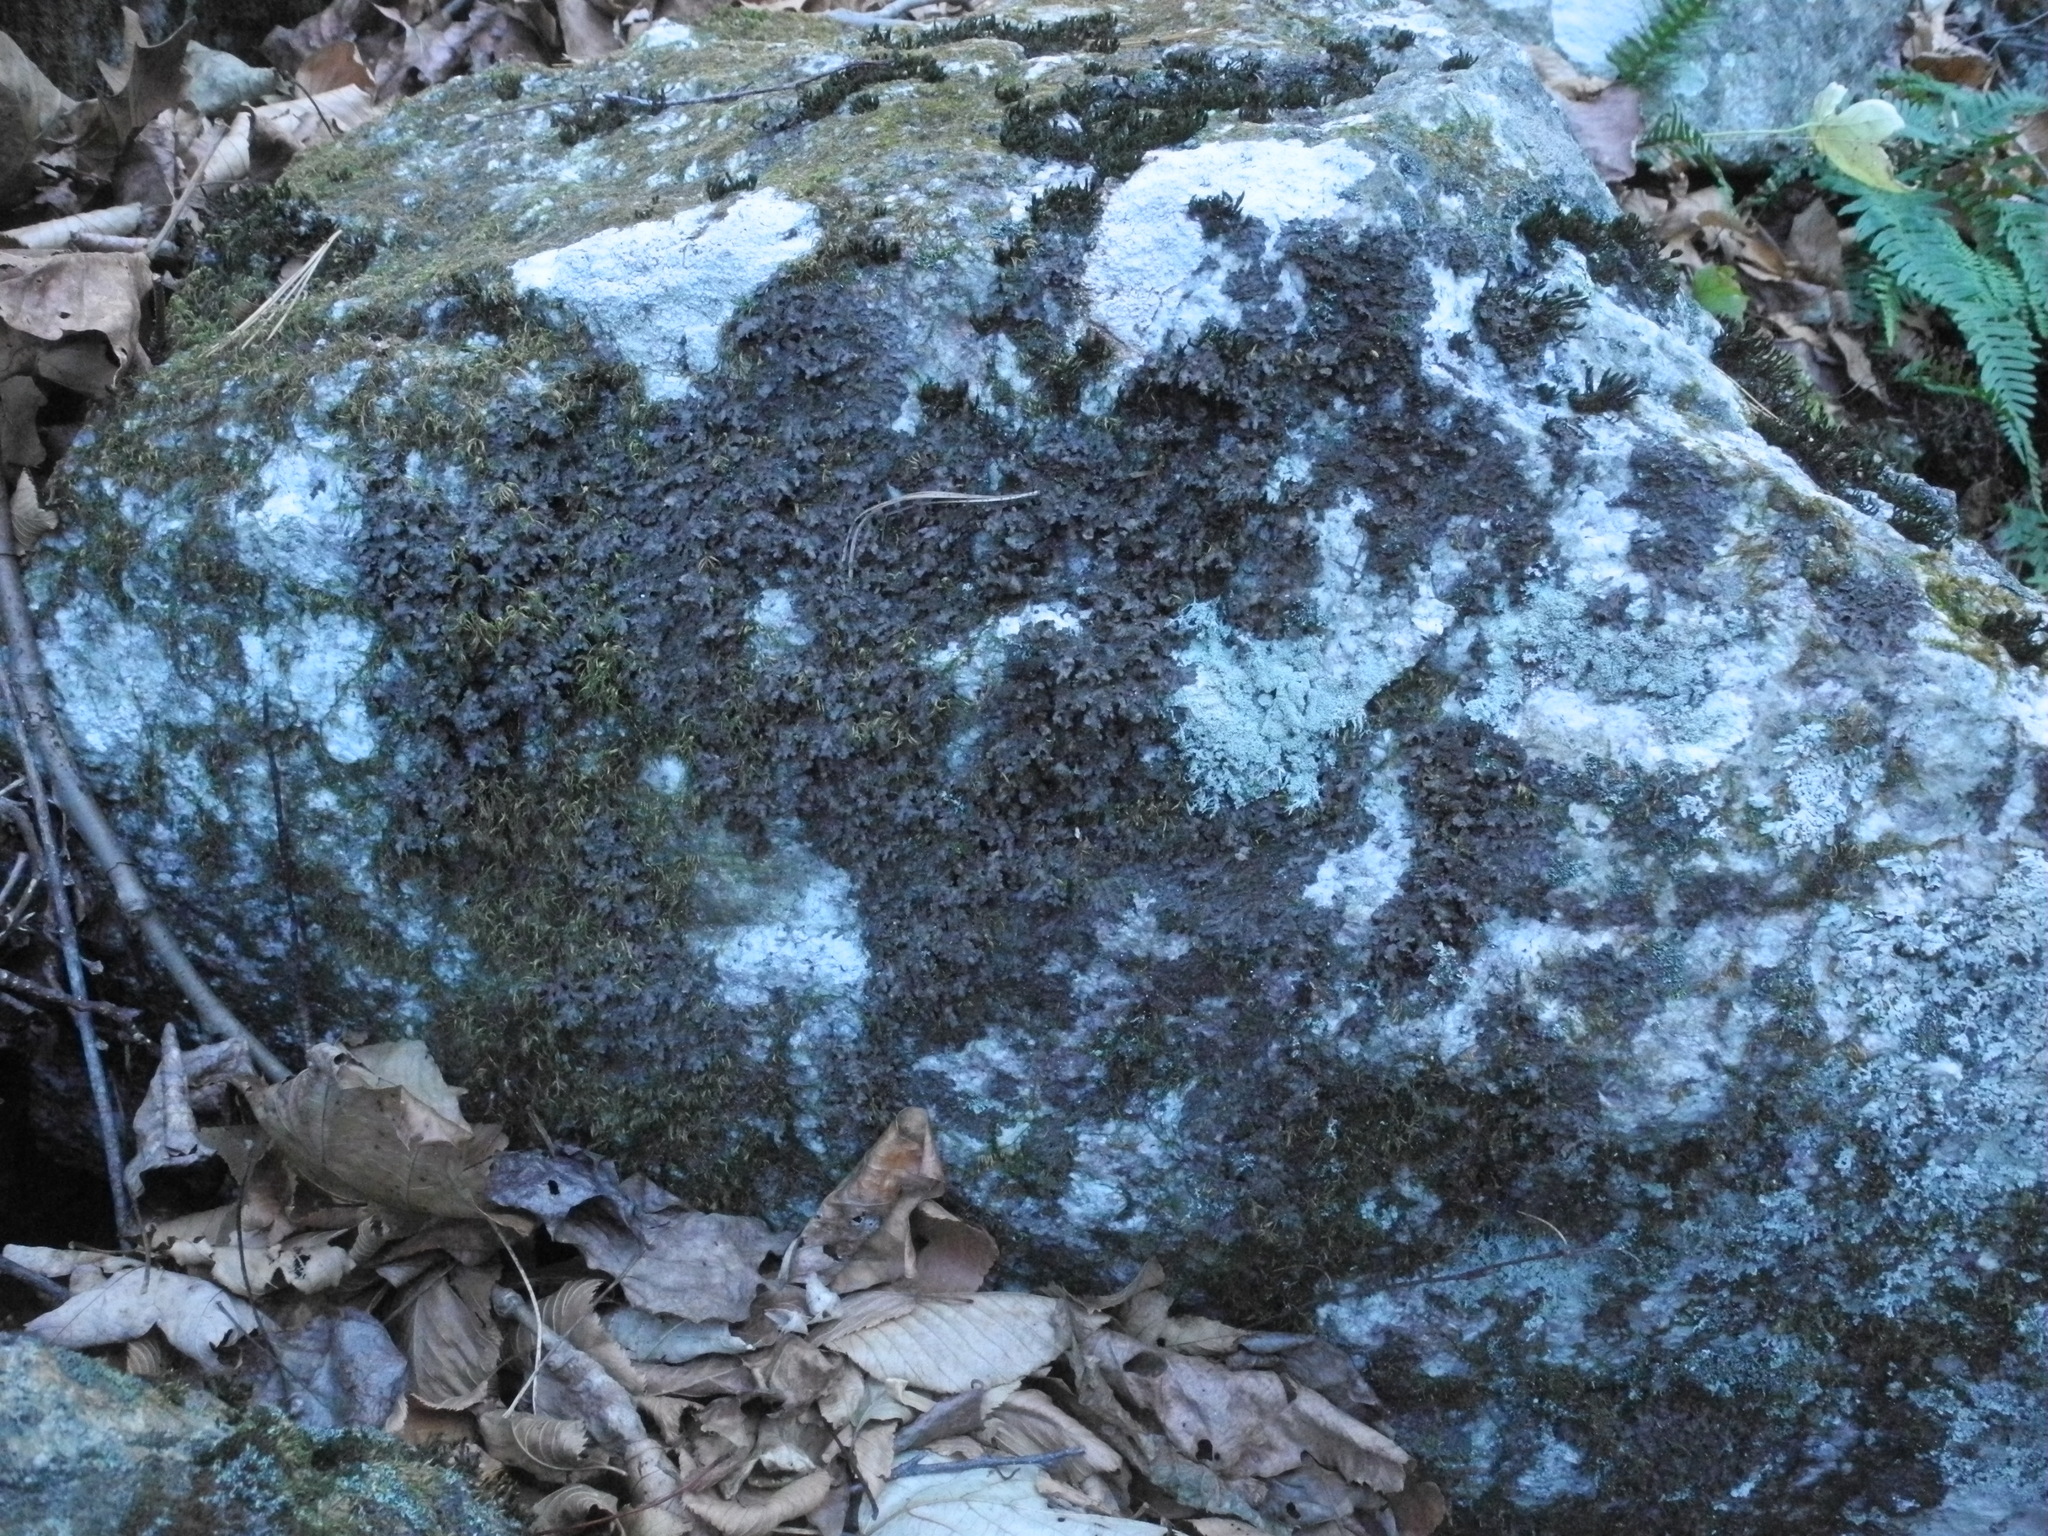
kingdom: Fungi
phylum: Ascomycota
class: Lecanoromycetes
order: Peltigerales
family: Lobariaceae
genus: Sticta
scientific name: Sticta carolinensis
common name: Carolina moon lichen
